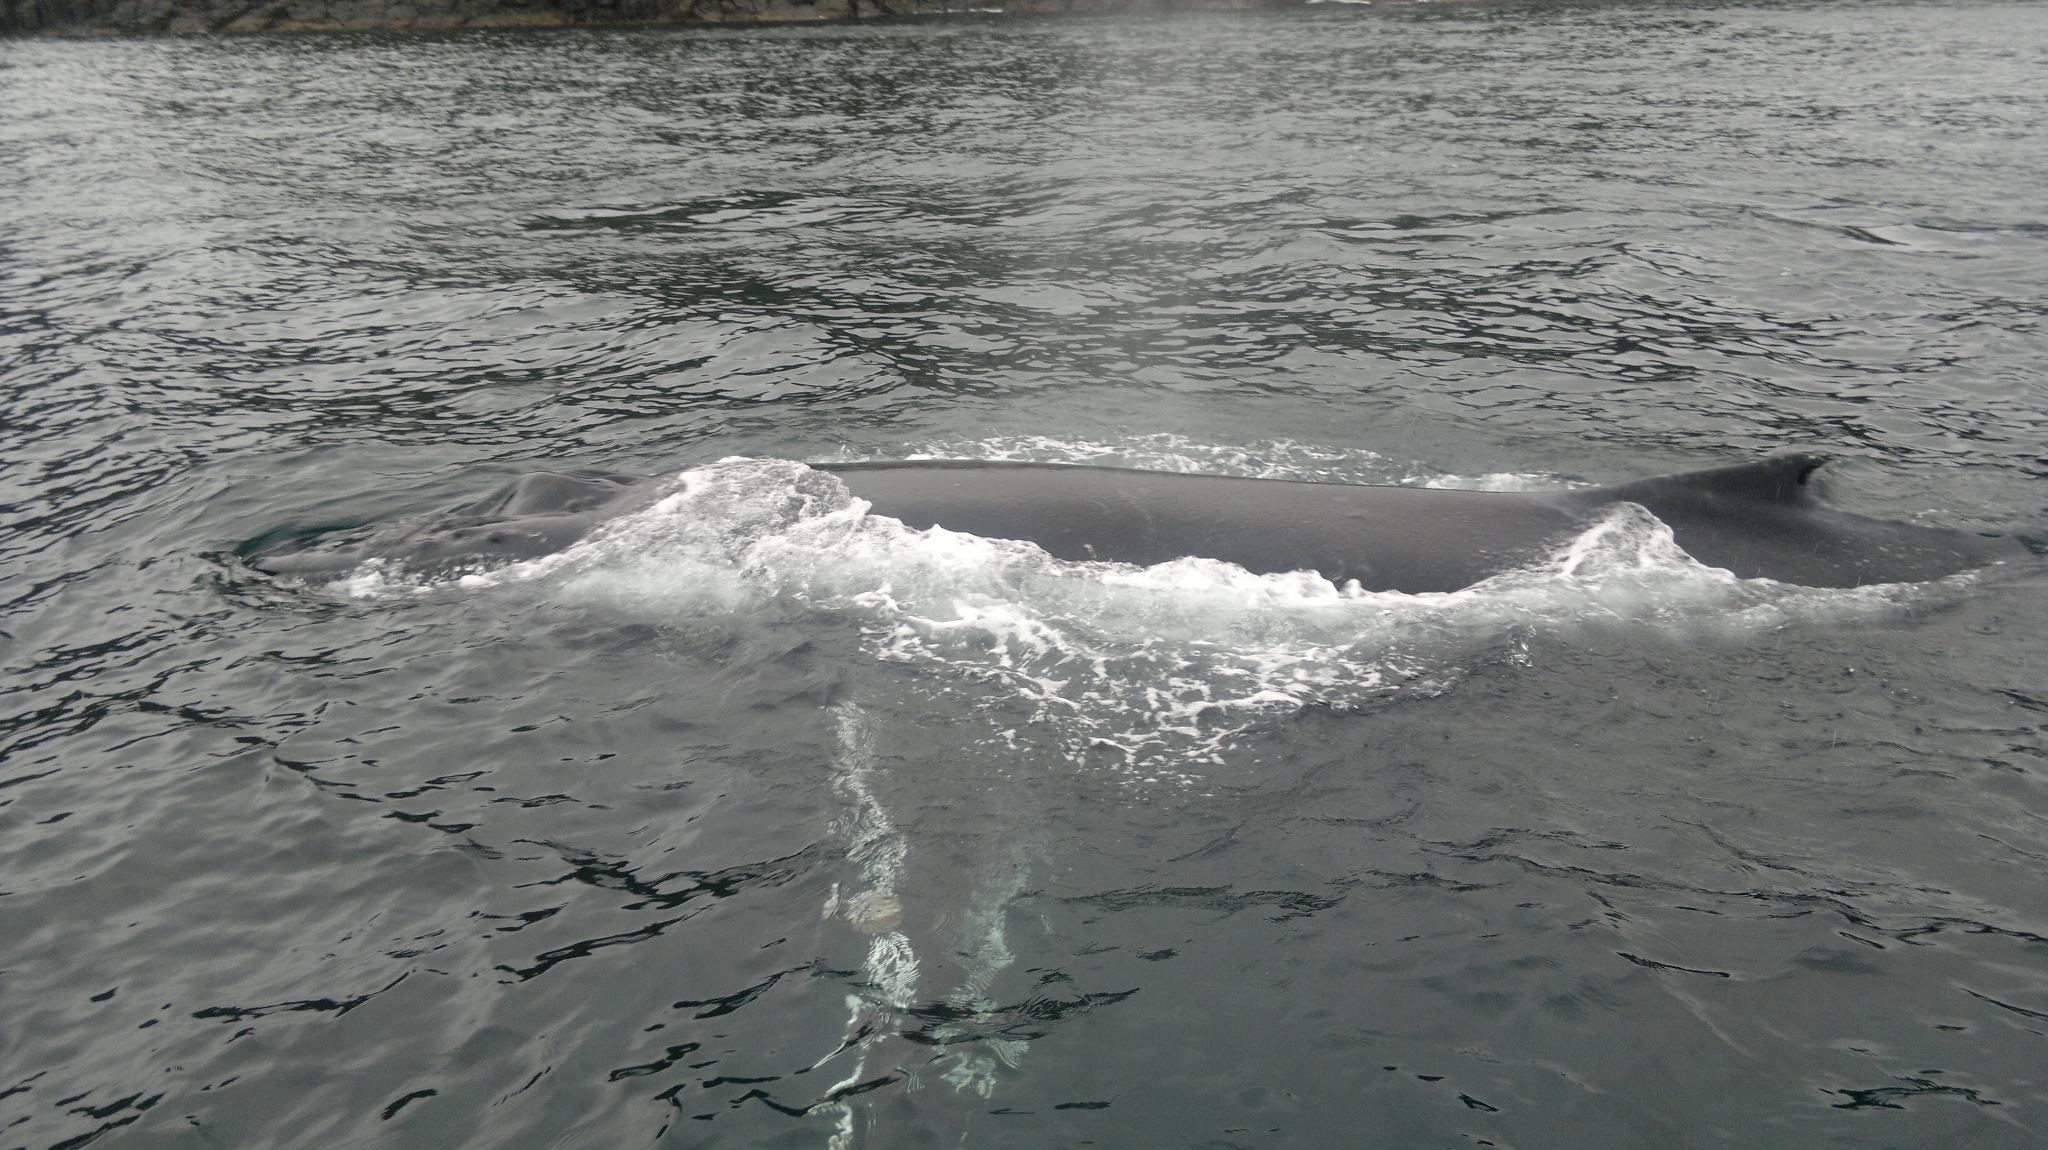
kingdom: Animalia
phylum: Chordata
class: Mammalia
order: Cetacea
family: Balaenopteridae
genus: Megaptera
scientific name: Megaptera novaeangliae
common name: Humpback whale
